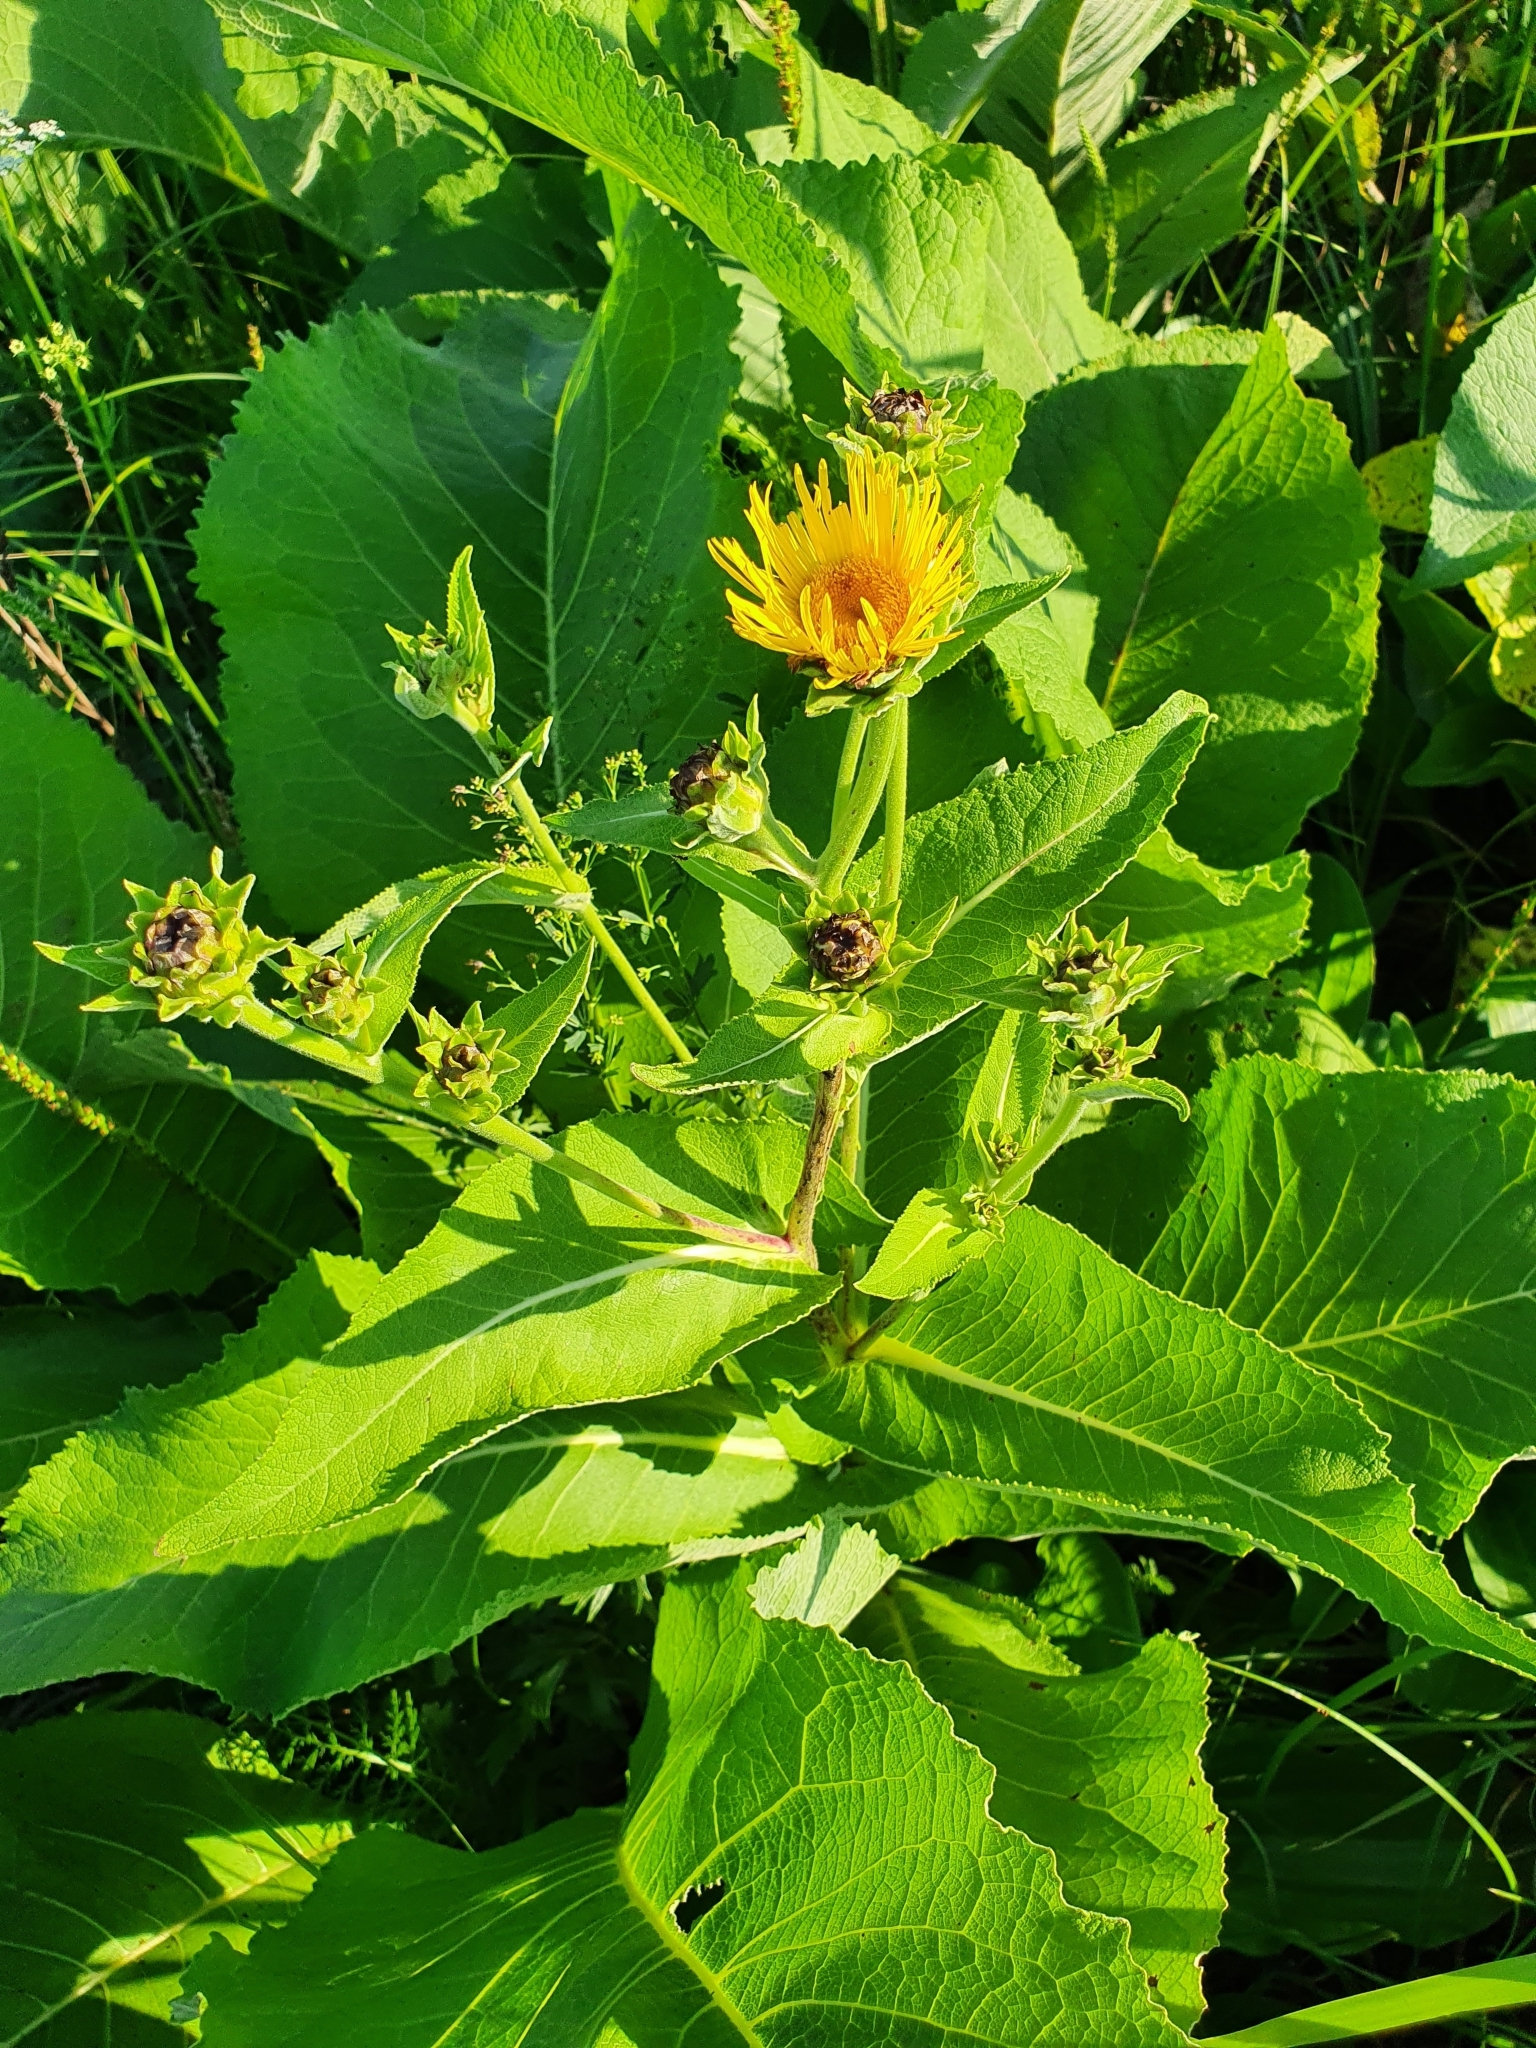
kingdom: Plantae
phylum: Tracheophyta
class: Magnoliopsida
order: Asterales
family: Asteraceae
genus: Inula
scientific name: Inula helenium
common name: Elecampane
